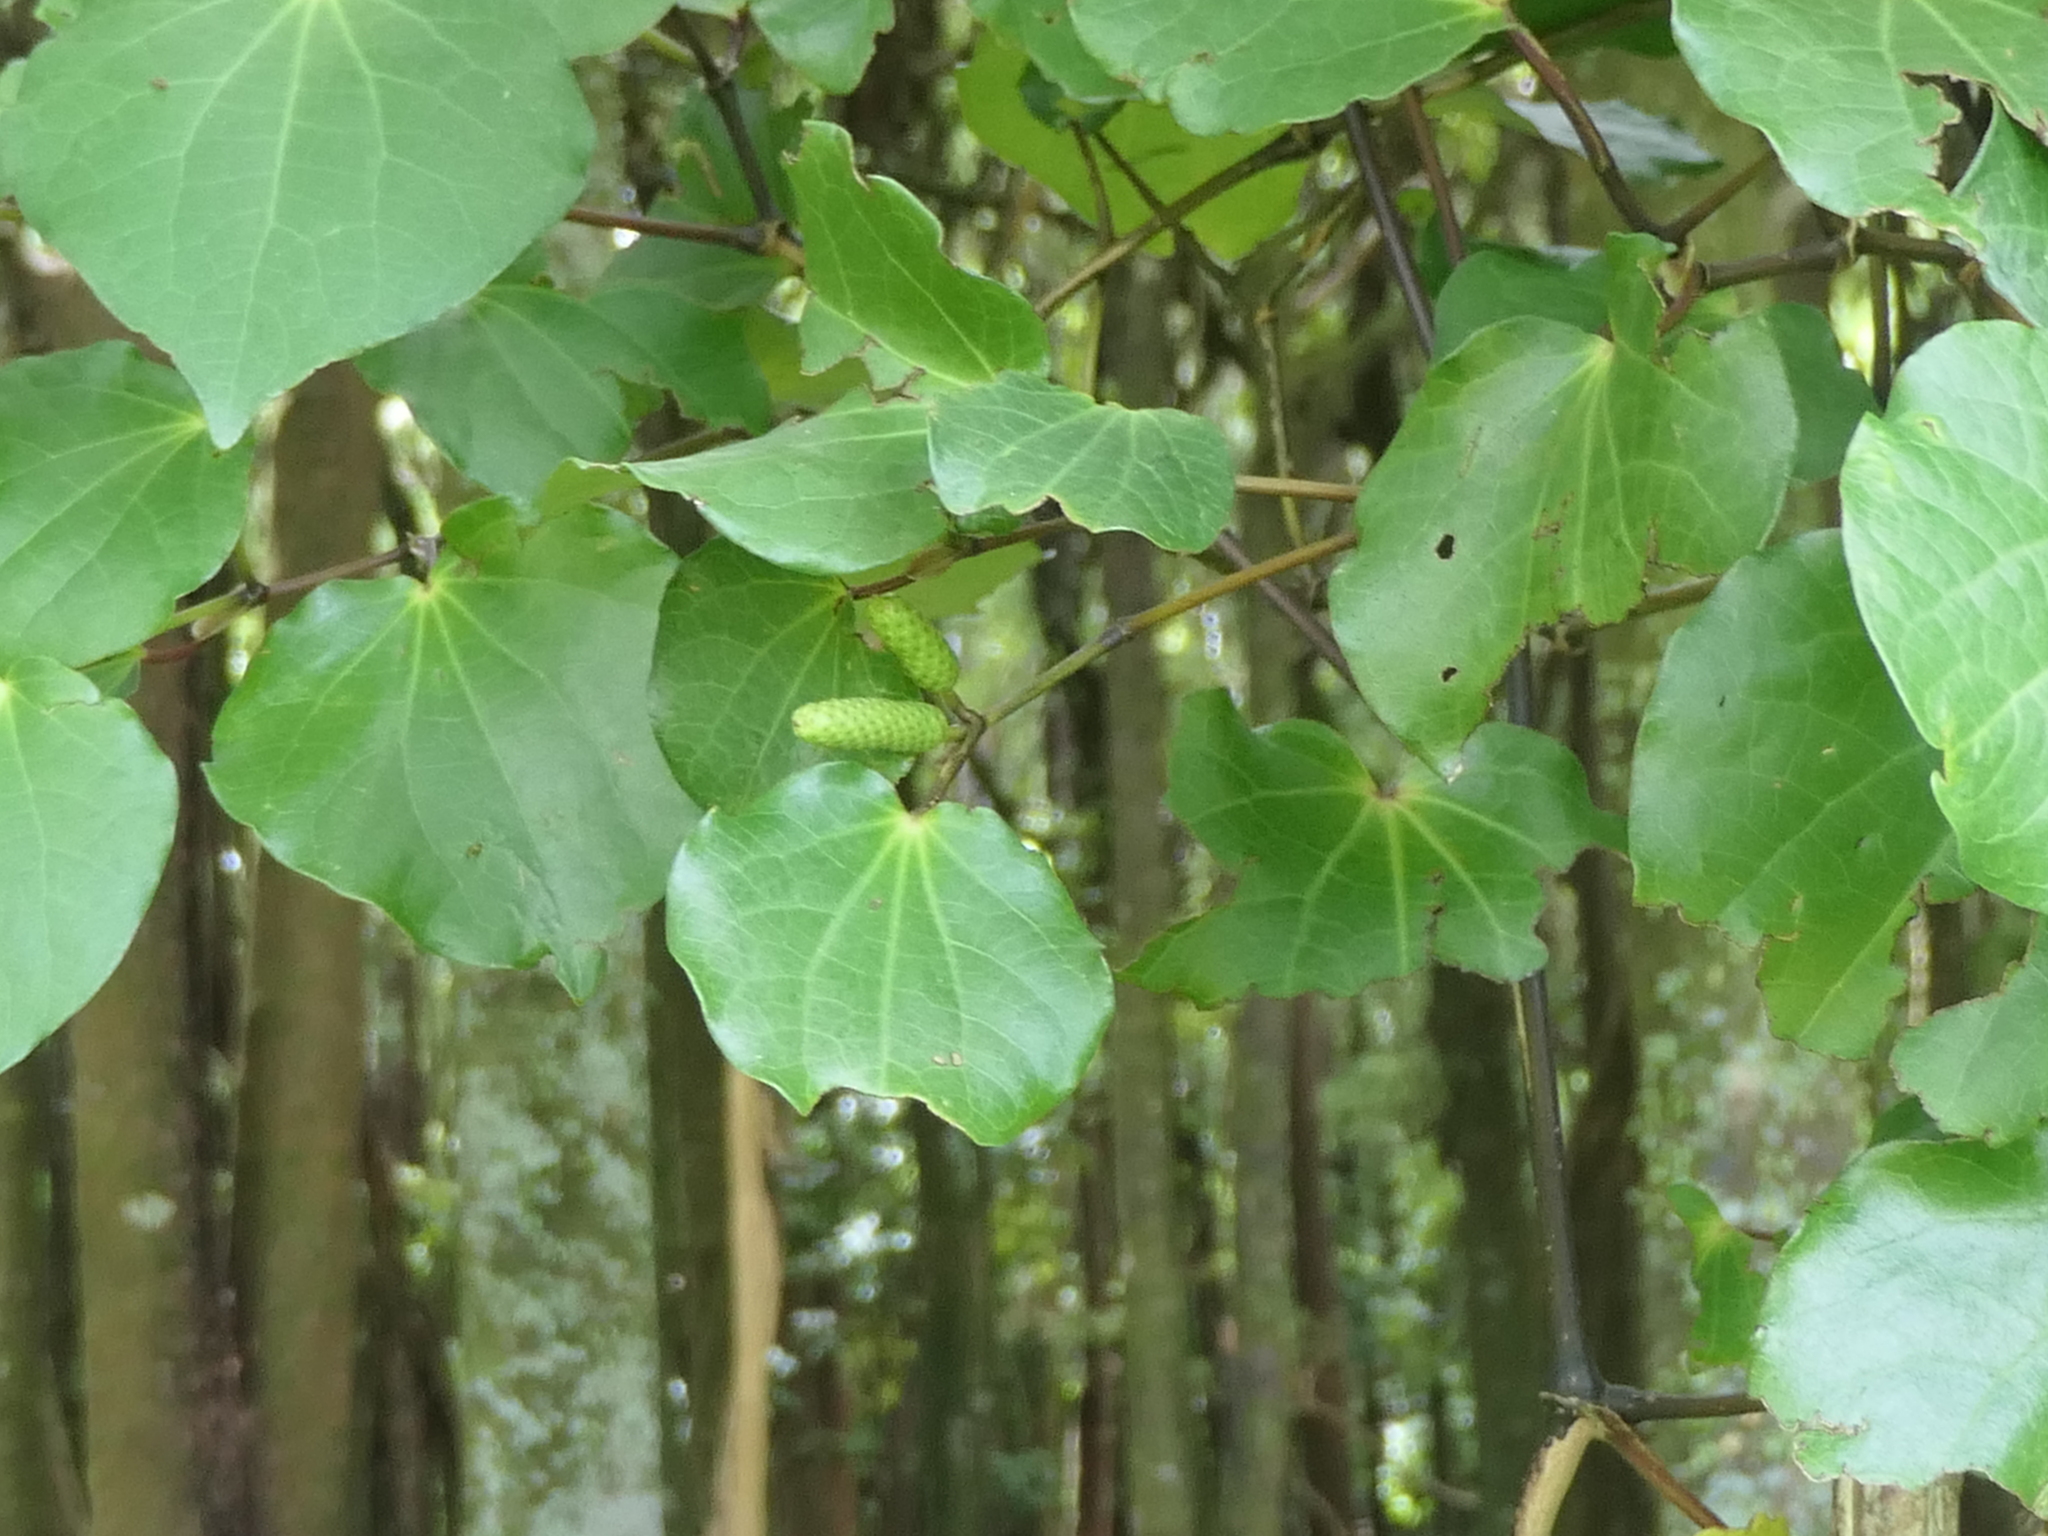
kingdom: Plantae
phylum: Tracheophyta
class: Magnoliopsida
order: Piperales
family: Piperaceae
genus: Macropiper
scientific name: Macropiper excelsum
